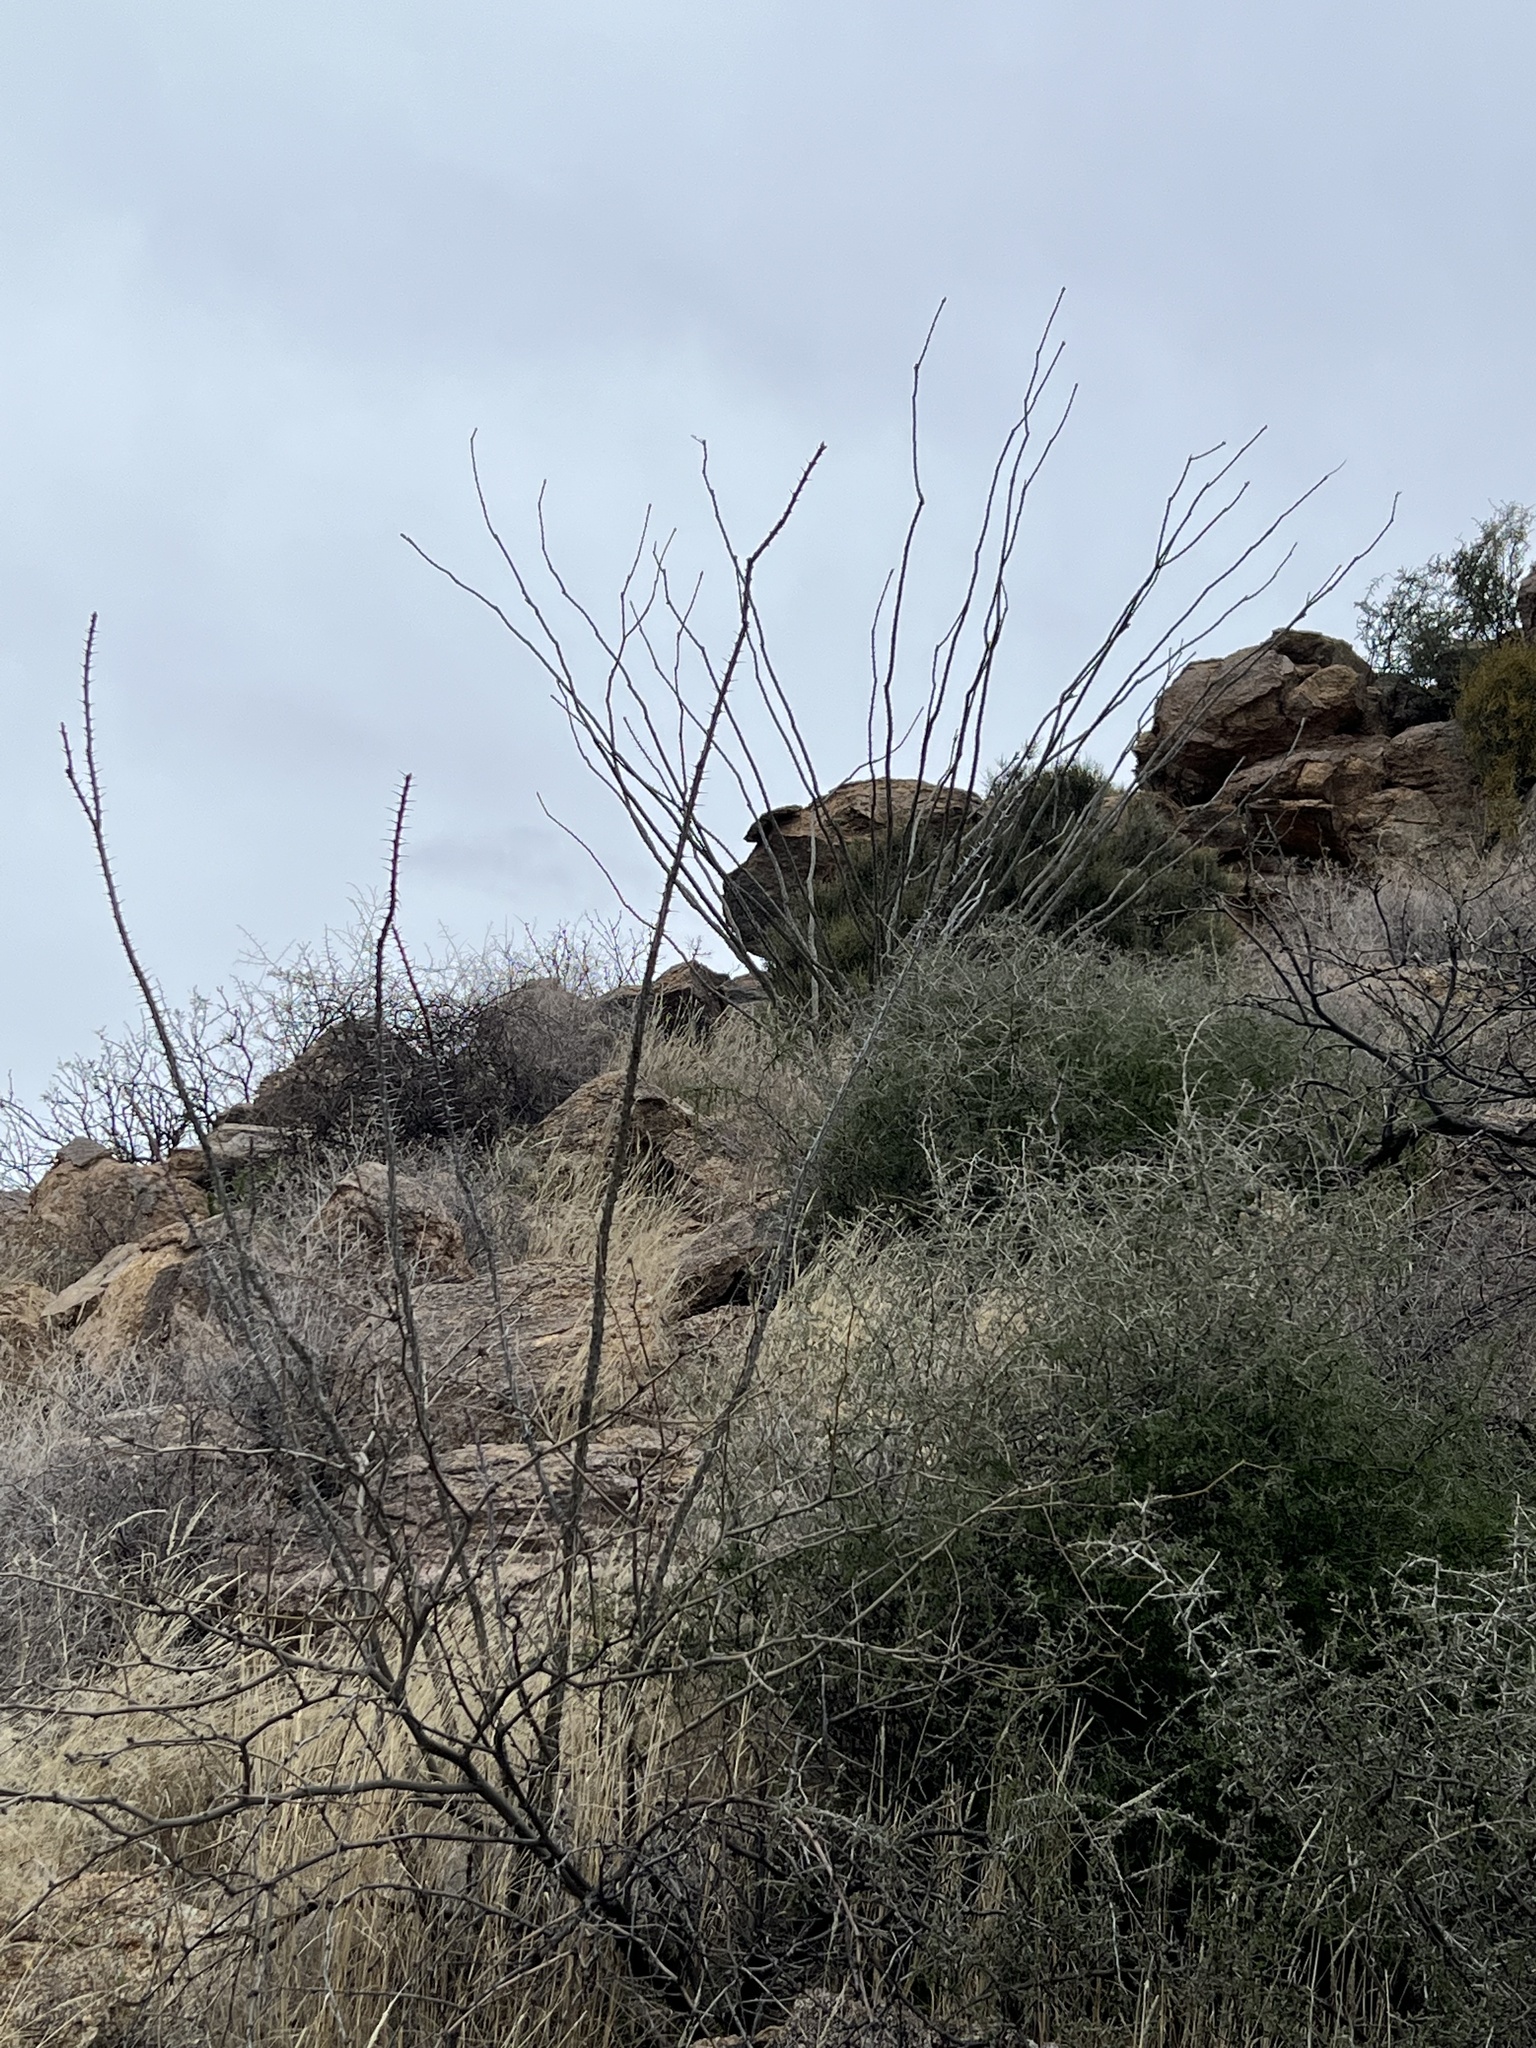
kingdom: Plantae
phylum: Tracheophyta
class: Magnoliopsida
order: Ericales
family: Fouquieriaceae
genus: Fouquieria
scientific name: Fouquieria splendens
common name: Vine-cactus
